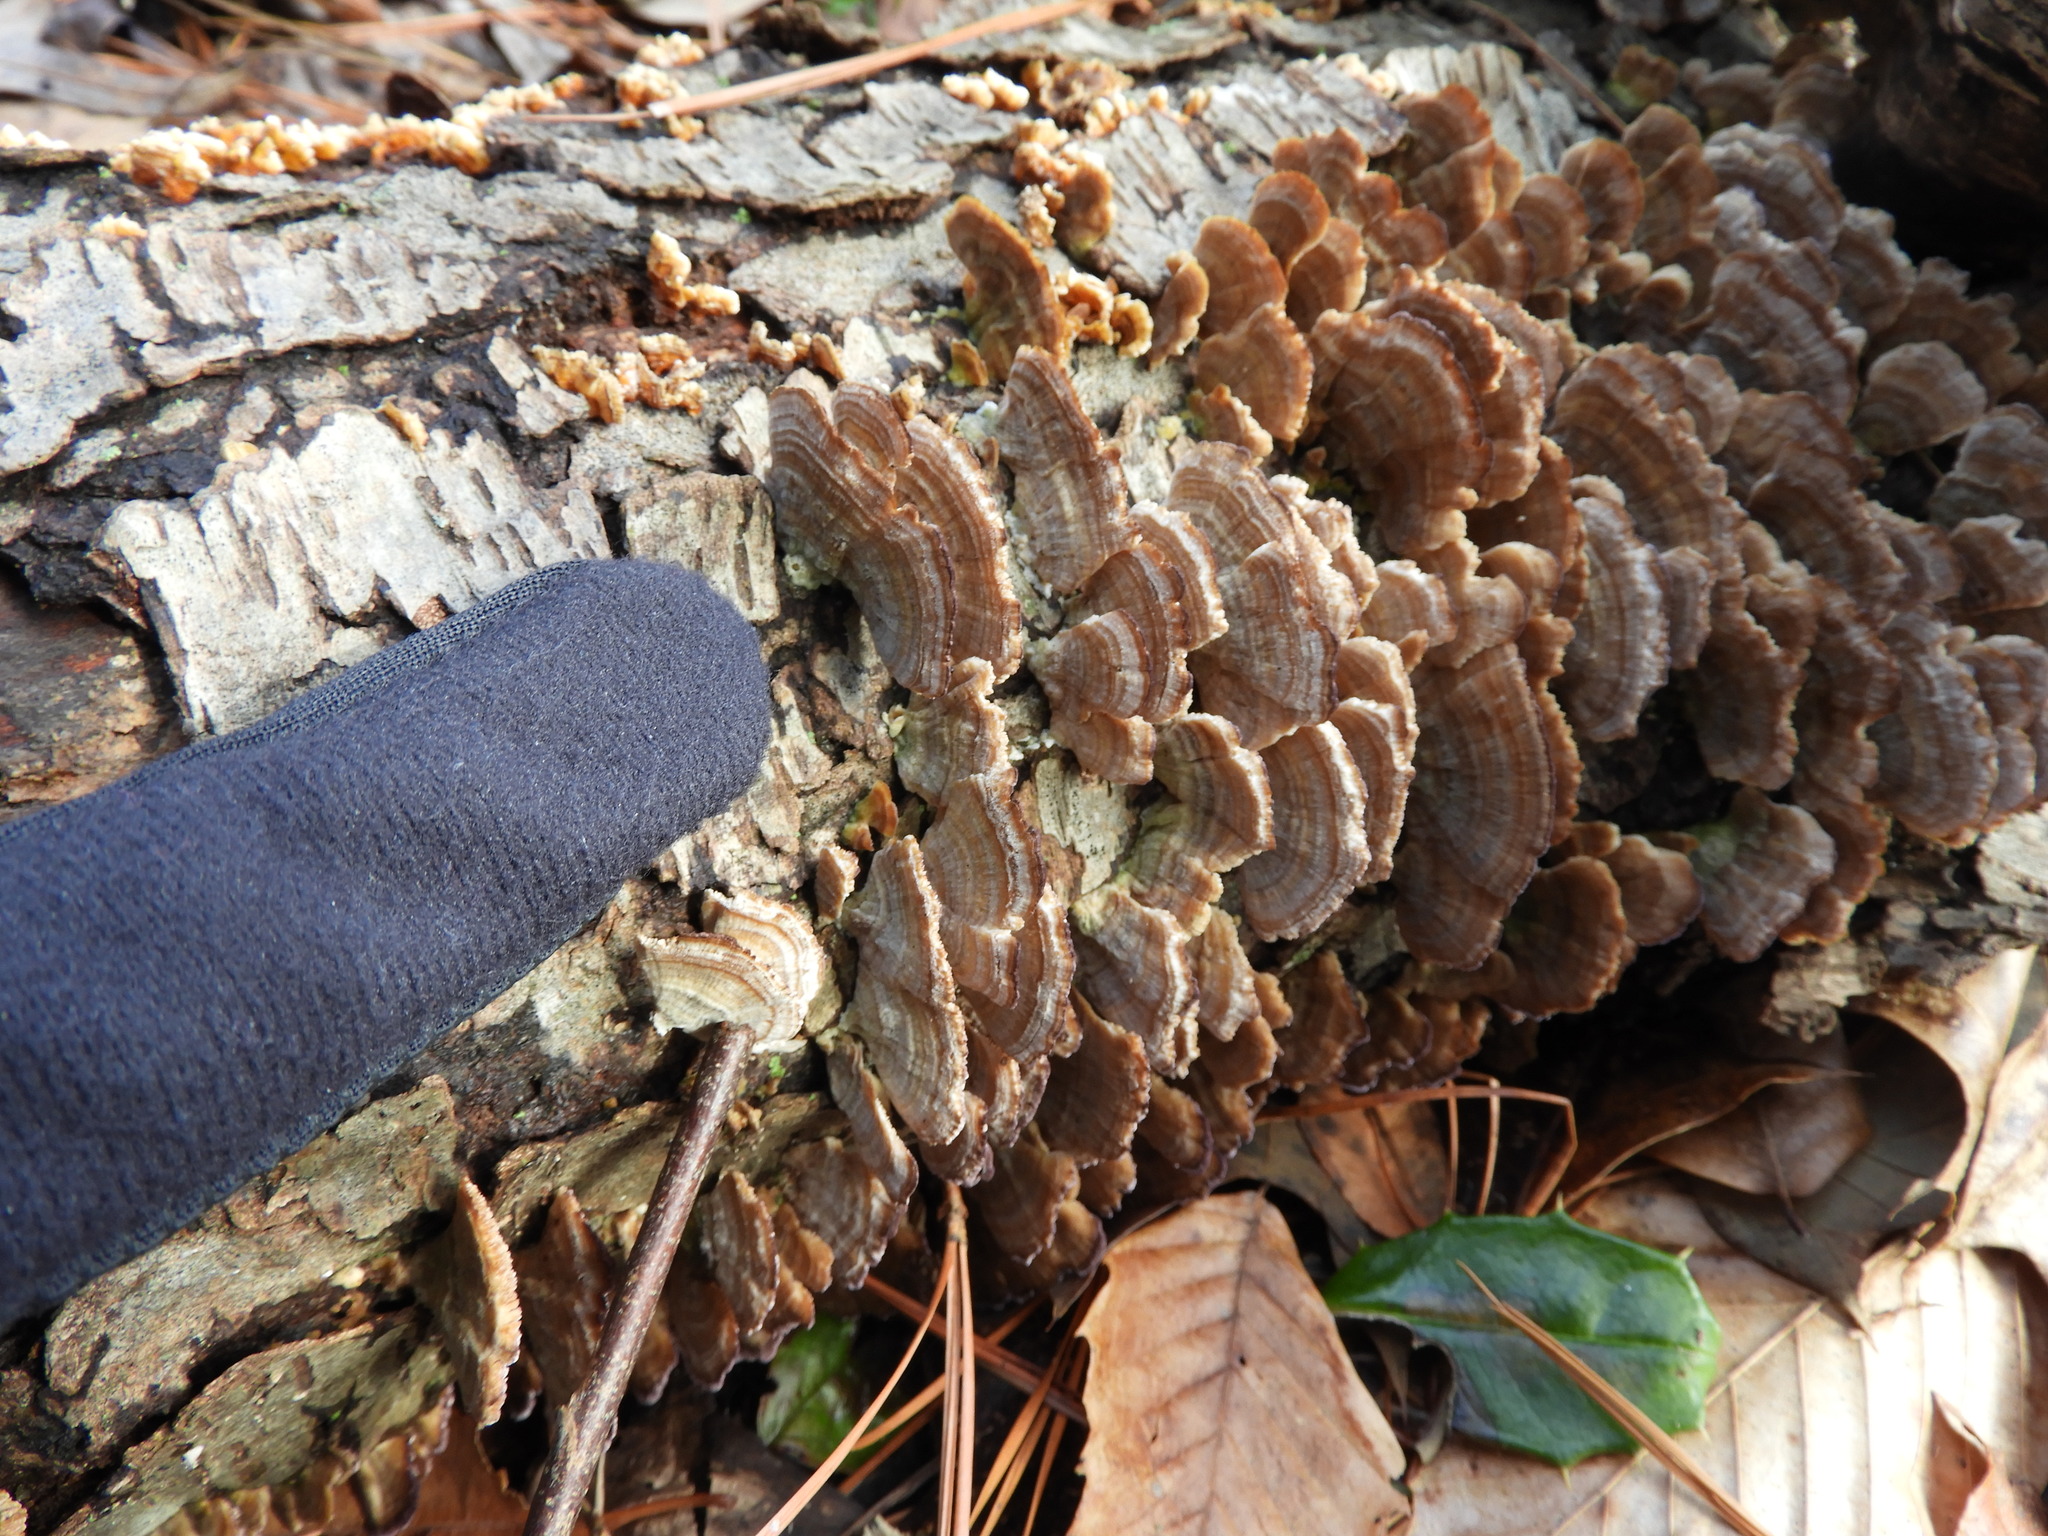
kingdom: Fungi
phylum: Basidiomycota
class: Agaricomycetes
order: Hymenochaetales
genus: Trichaptum
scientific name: Trichaptum biforme
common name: Violet-toothed polypore
